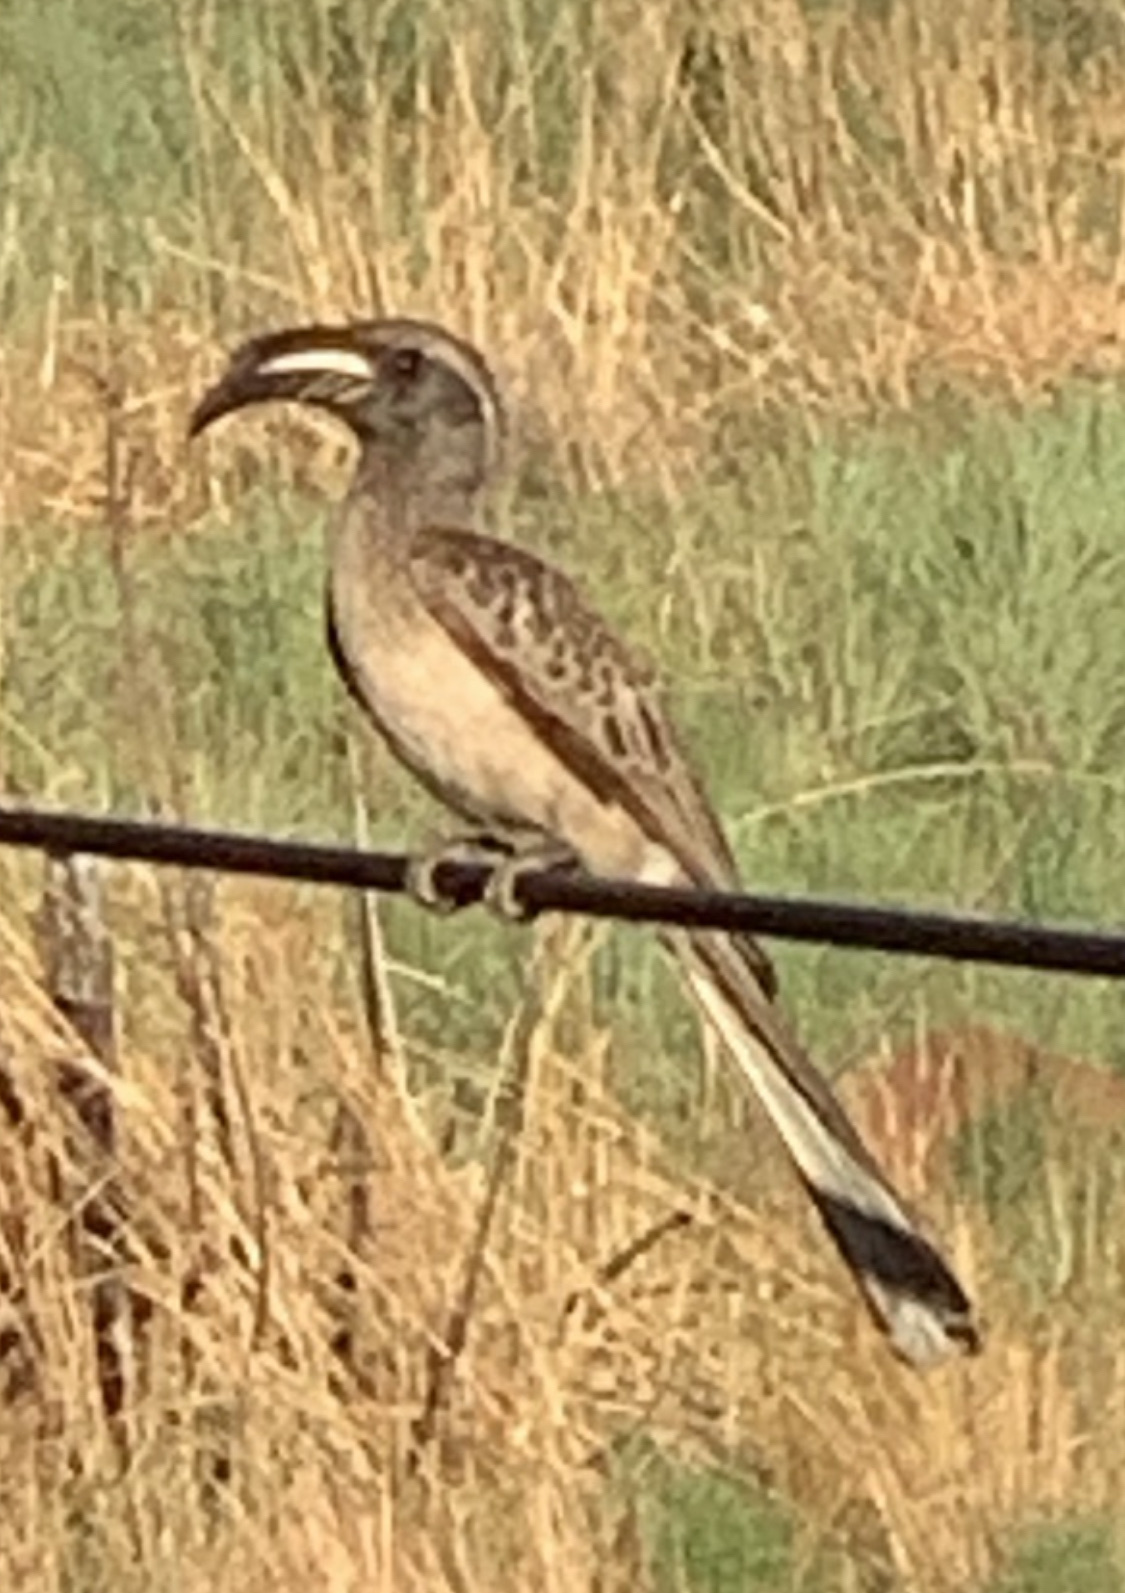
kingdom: Animalia
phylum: Chordata
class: Aves
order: Bucerotiformes
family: Bucerotidae
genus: Lophoceros
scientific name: Lophoceros nasutus
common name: African grey hornbill
